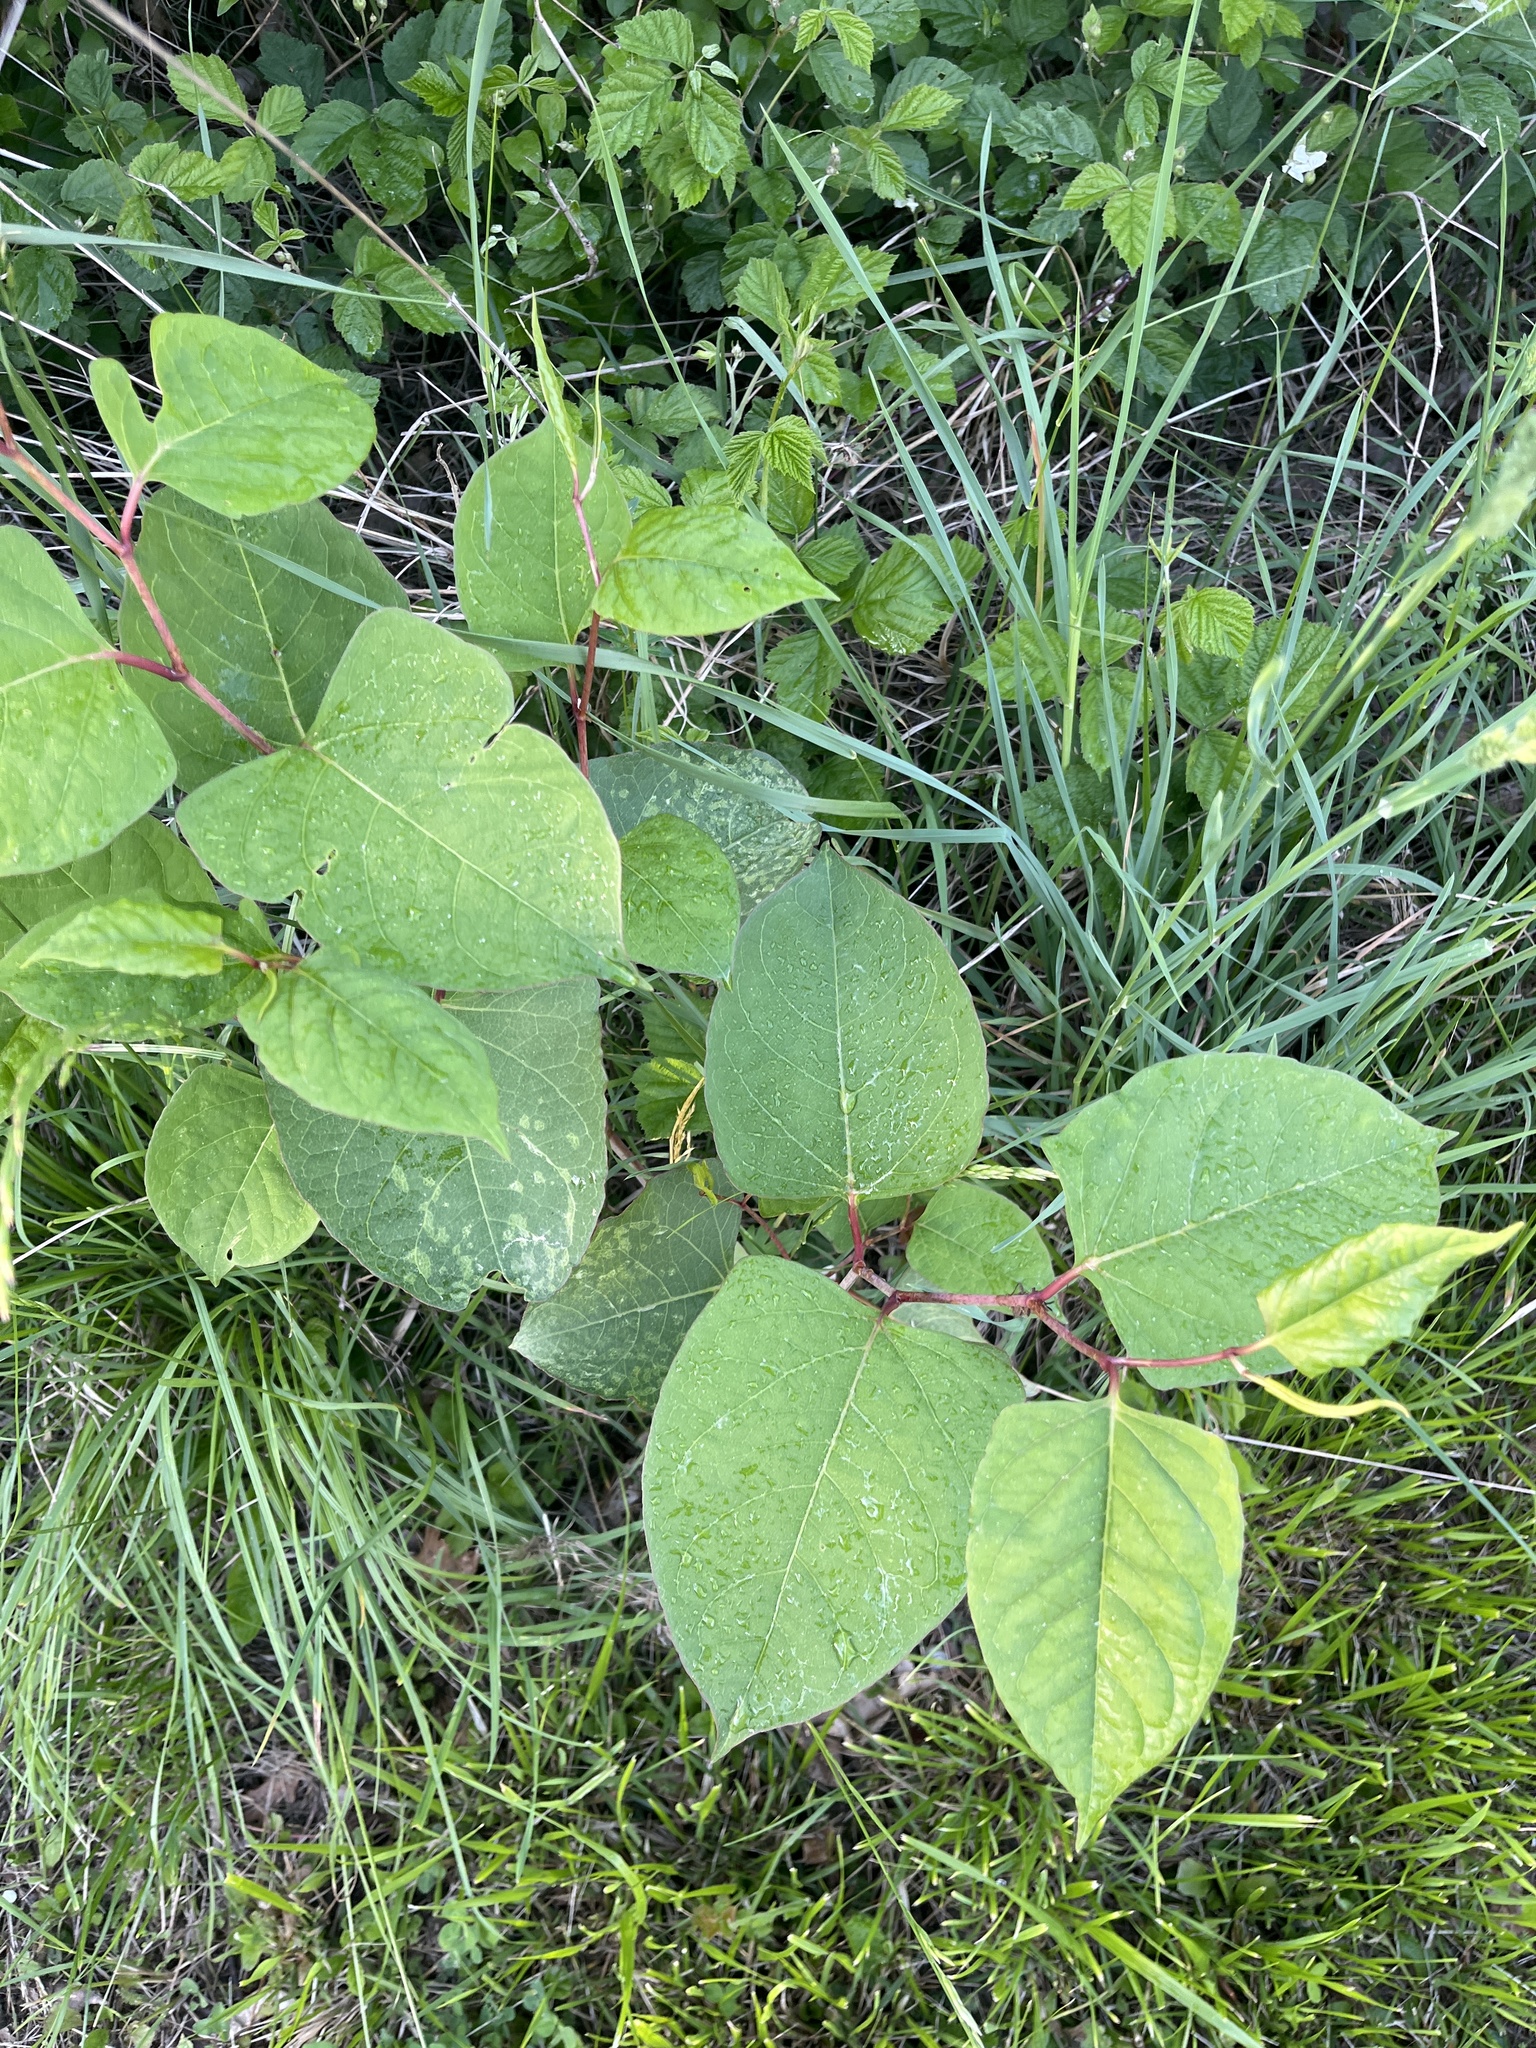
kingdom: Plantae
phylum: Tracheophyta
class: Magnoliopsida
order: Caryophyllales
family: Polygonaceae
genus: Reynoutria
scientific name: Reynoutria japonica
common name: Japanese knotweed
